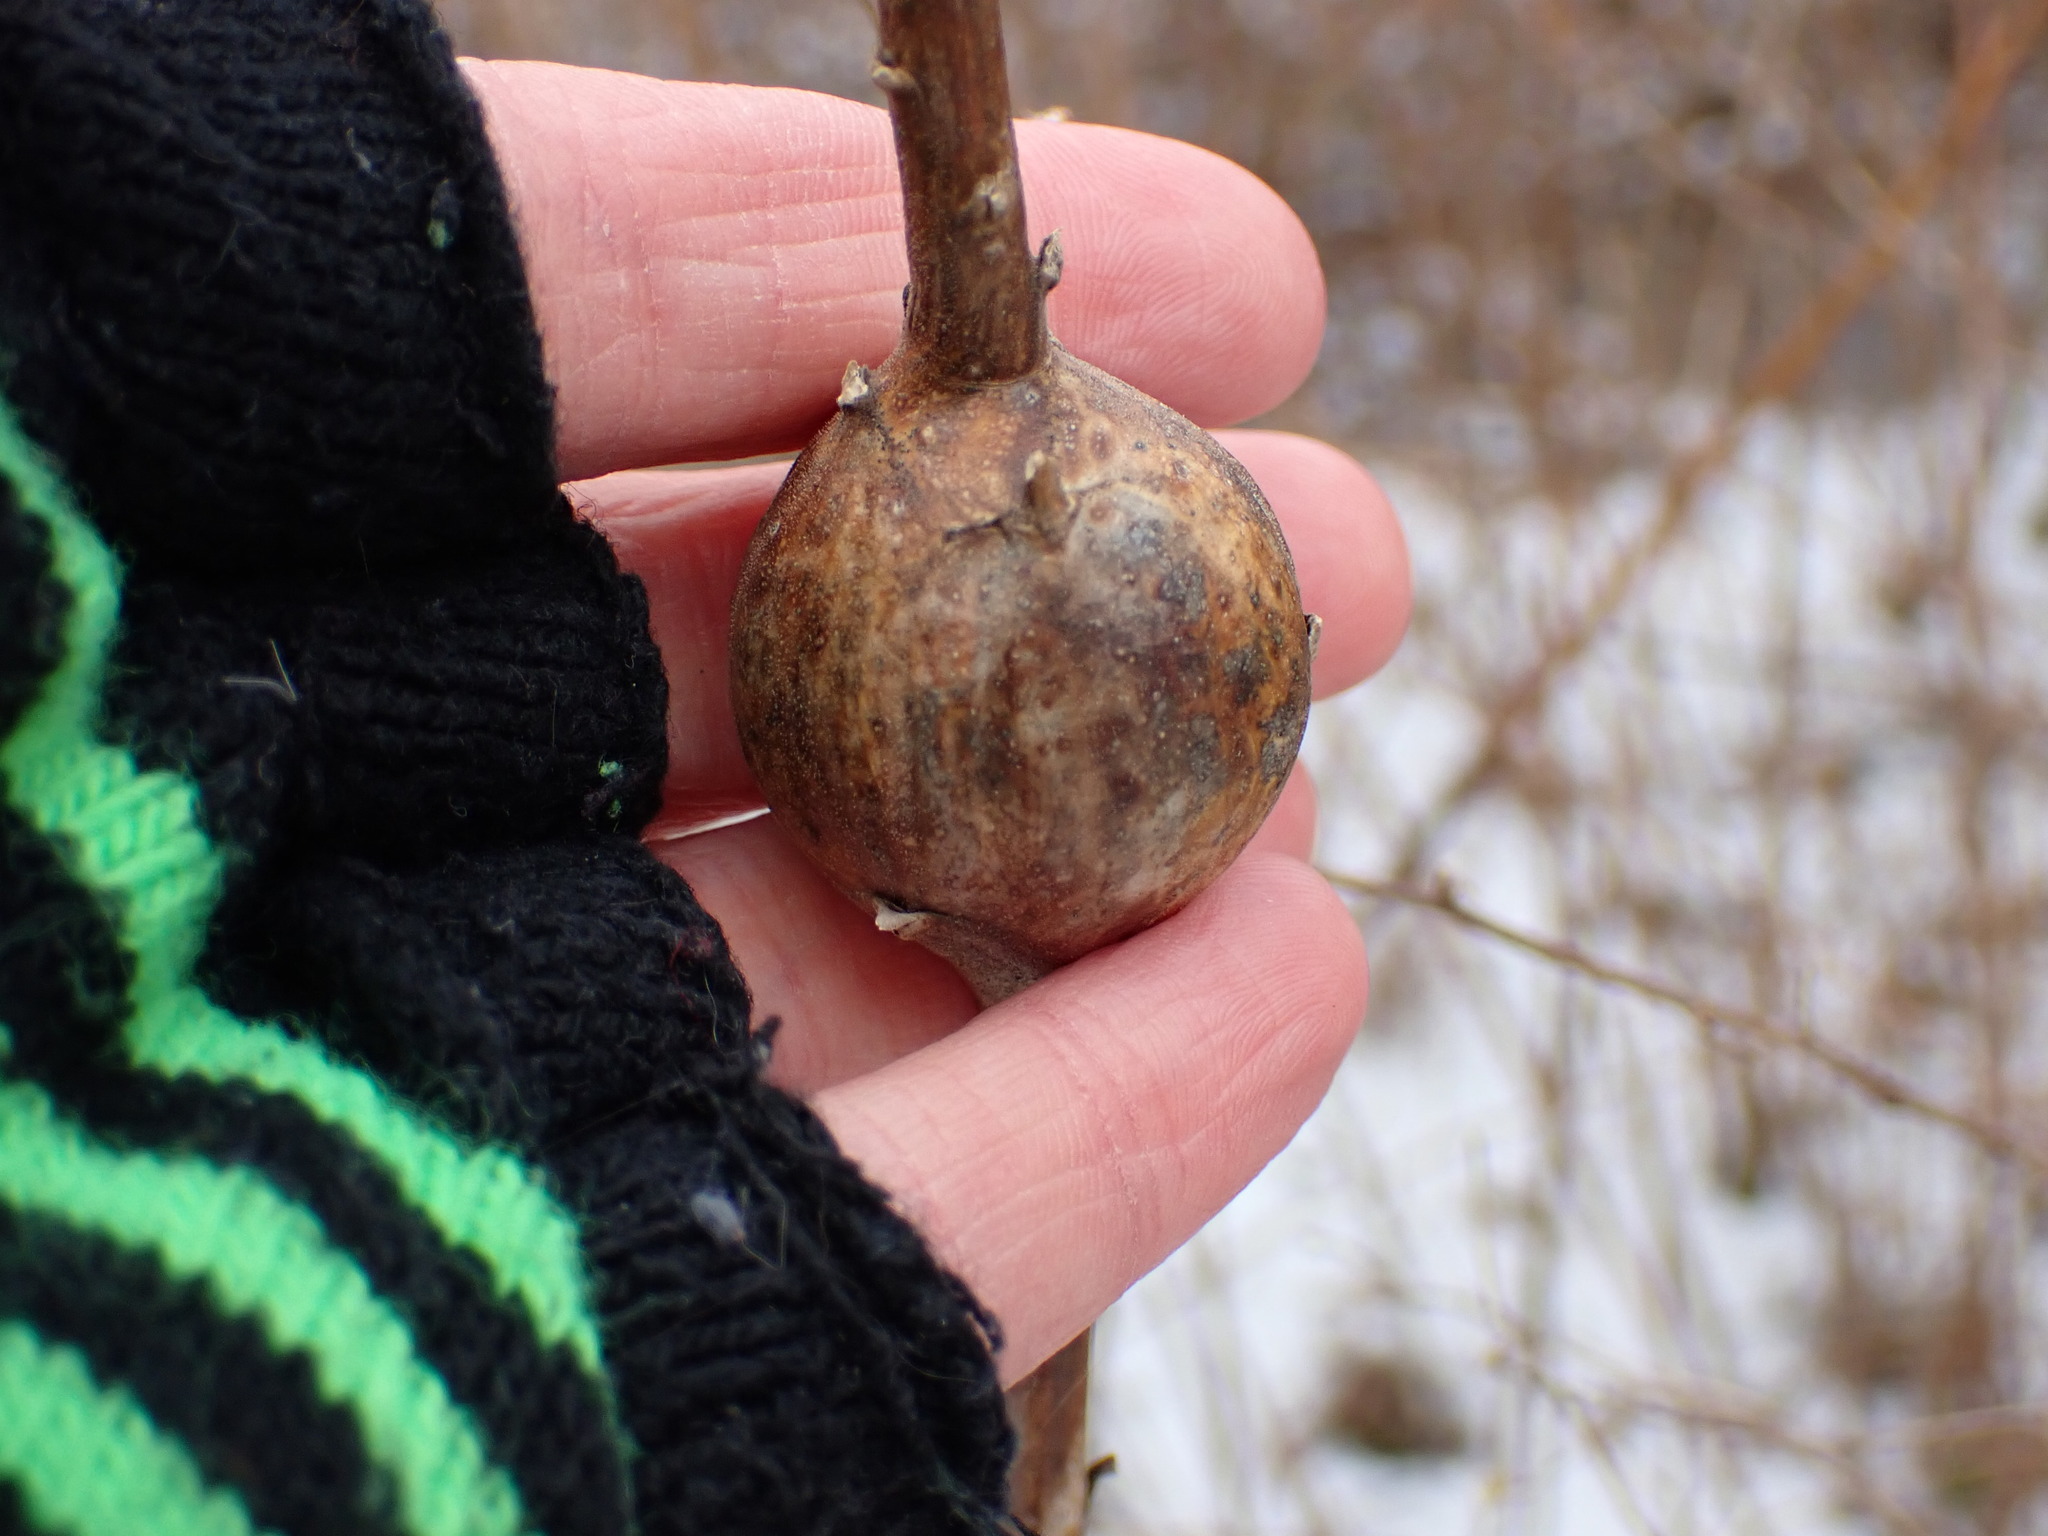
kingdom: Animalia
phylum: Arthropoda
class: Insecta
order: Diptera
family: Tephritidae
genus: Eurosta
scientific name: Eurosta solidaginis
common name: Goldenrod gall fly
